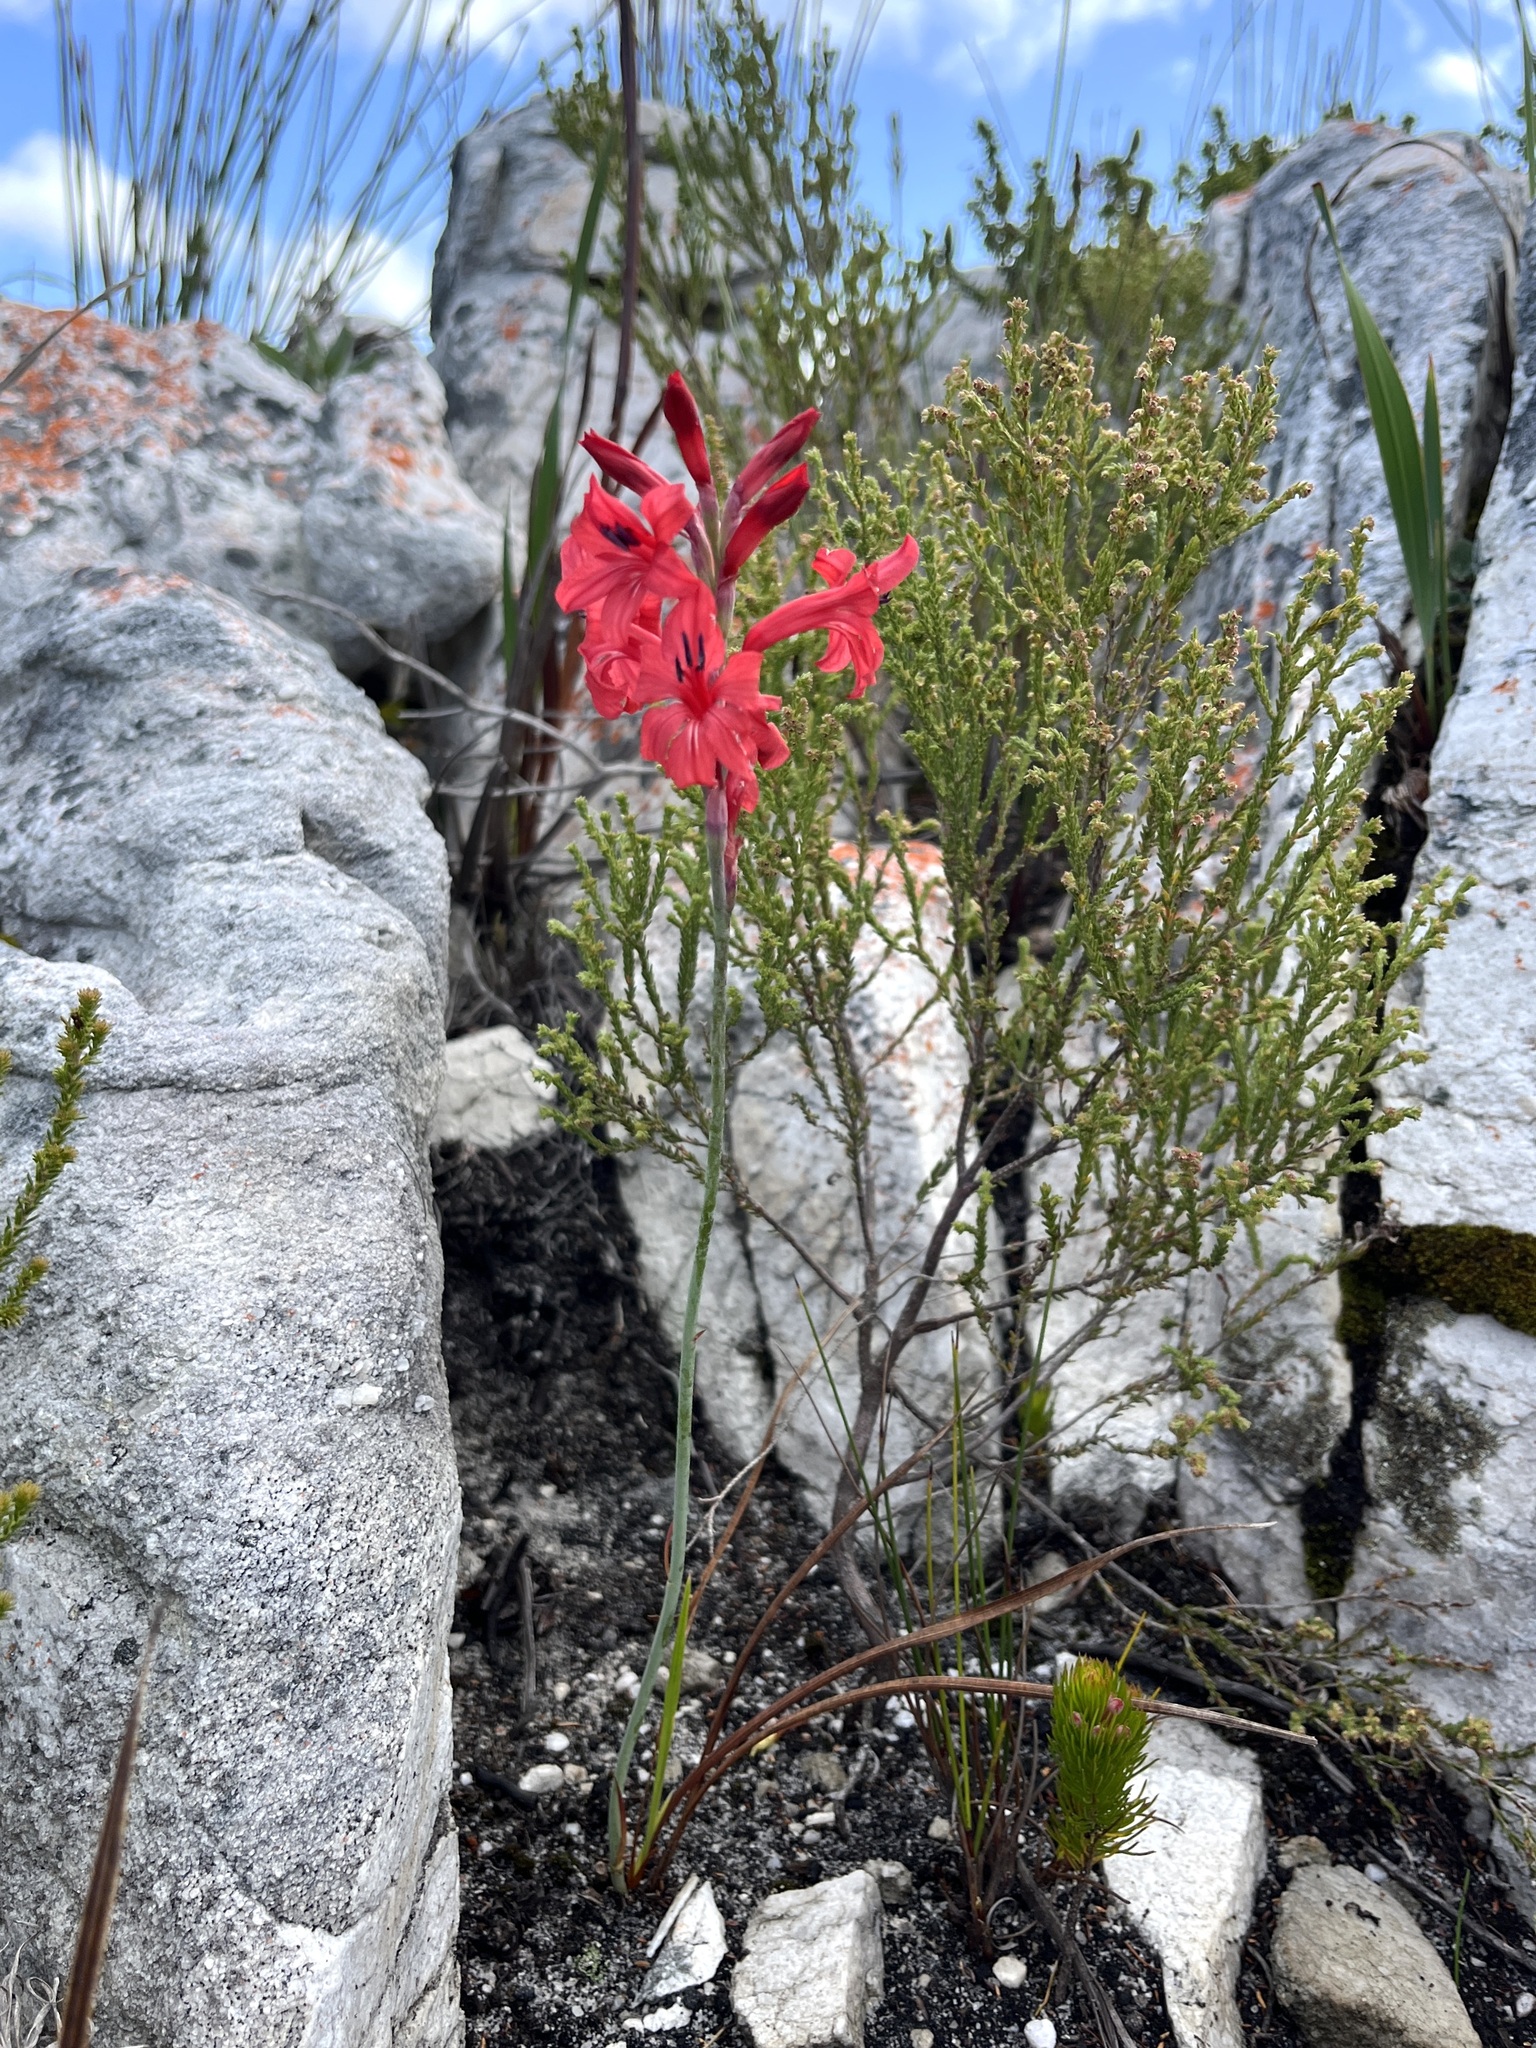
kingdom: Plantae
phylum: Tracheophyta
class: Liliopsida
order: Asparagales
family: Iridaceae
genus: Tritoniopsis
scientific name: Tritoniopsis pulchra
